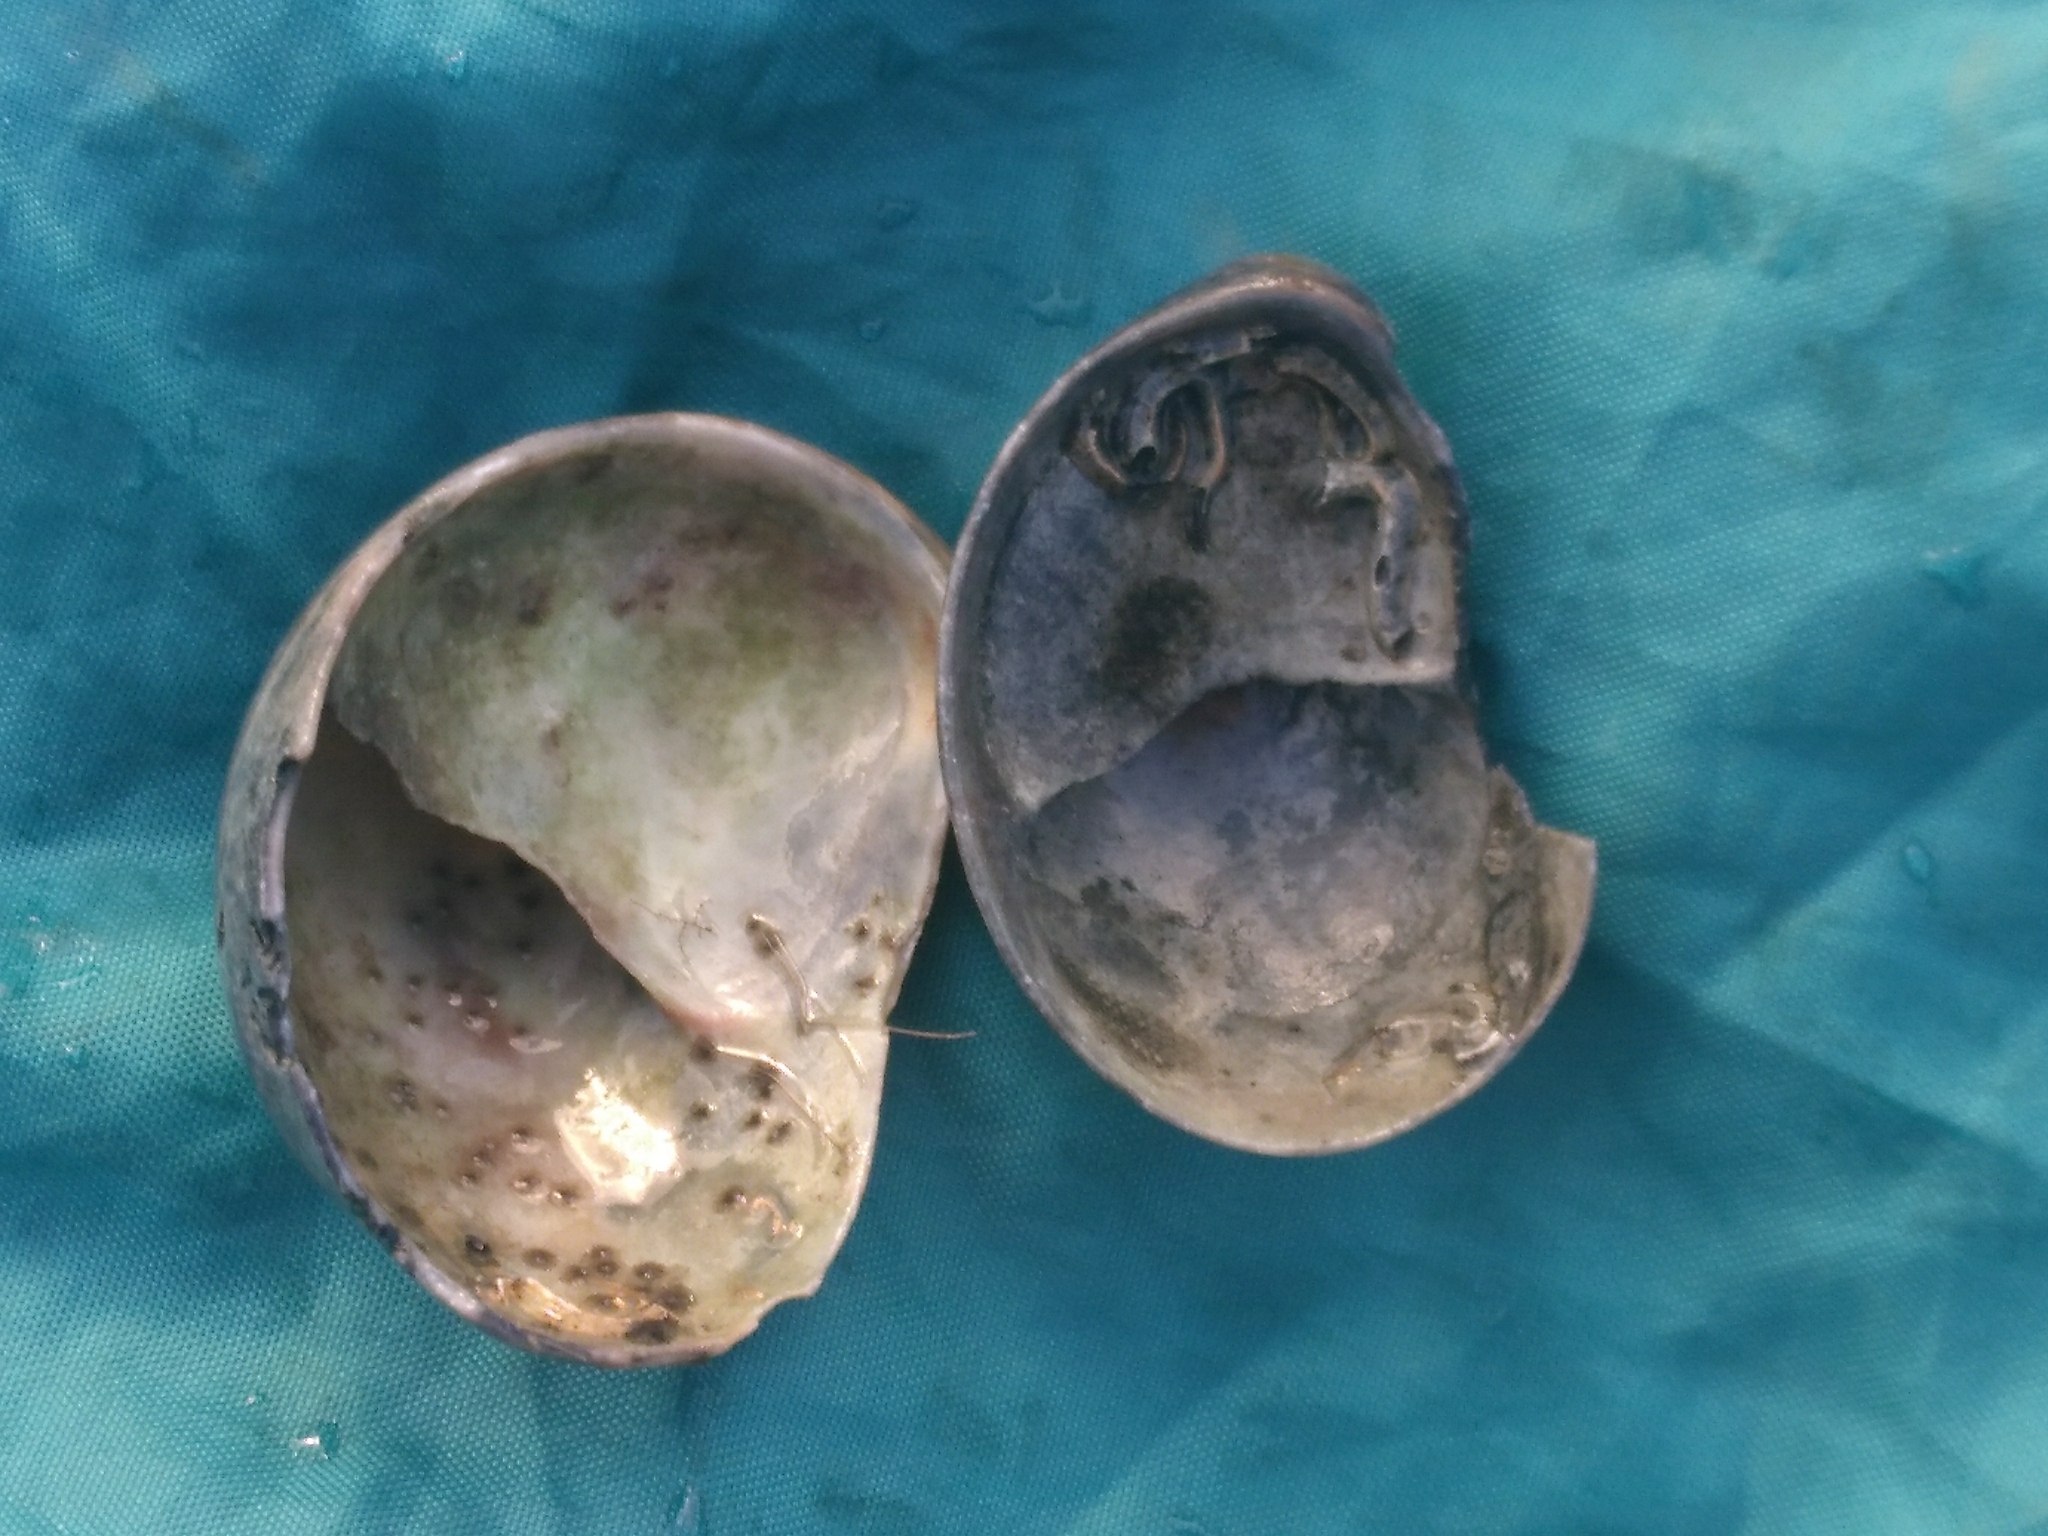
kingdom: Animalia
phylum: Mollusca
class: Gastropoda
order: Littorinimorpha
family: Calyptraeidae
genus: Crepidula
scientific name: Crepidula fornicata
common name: Slipper limpet
